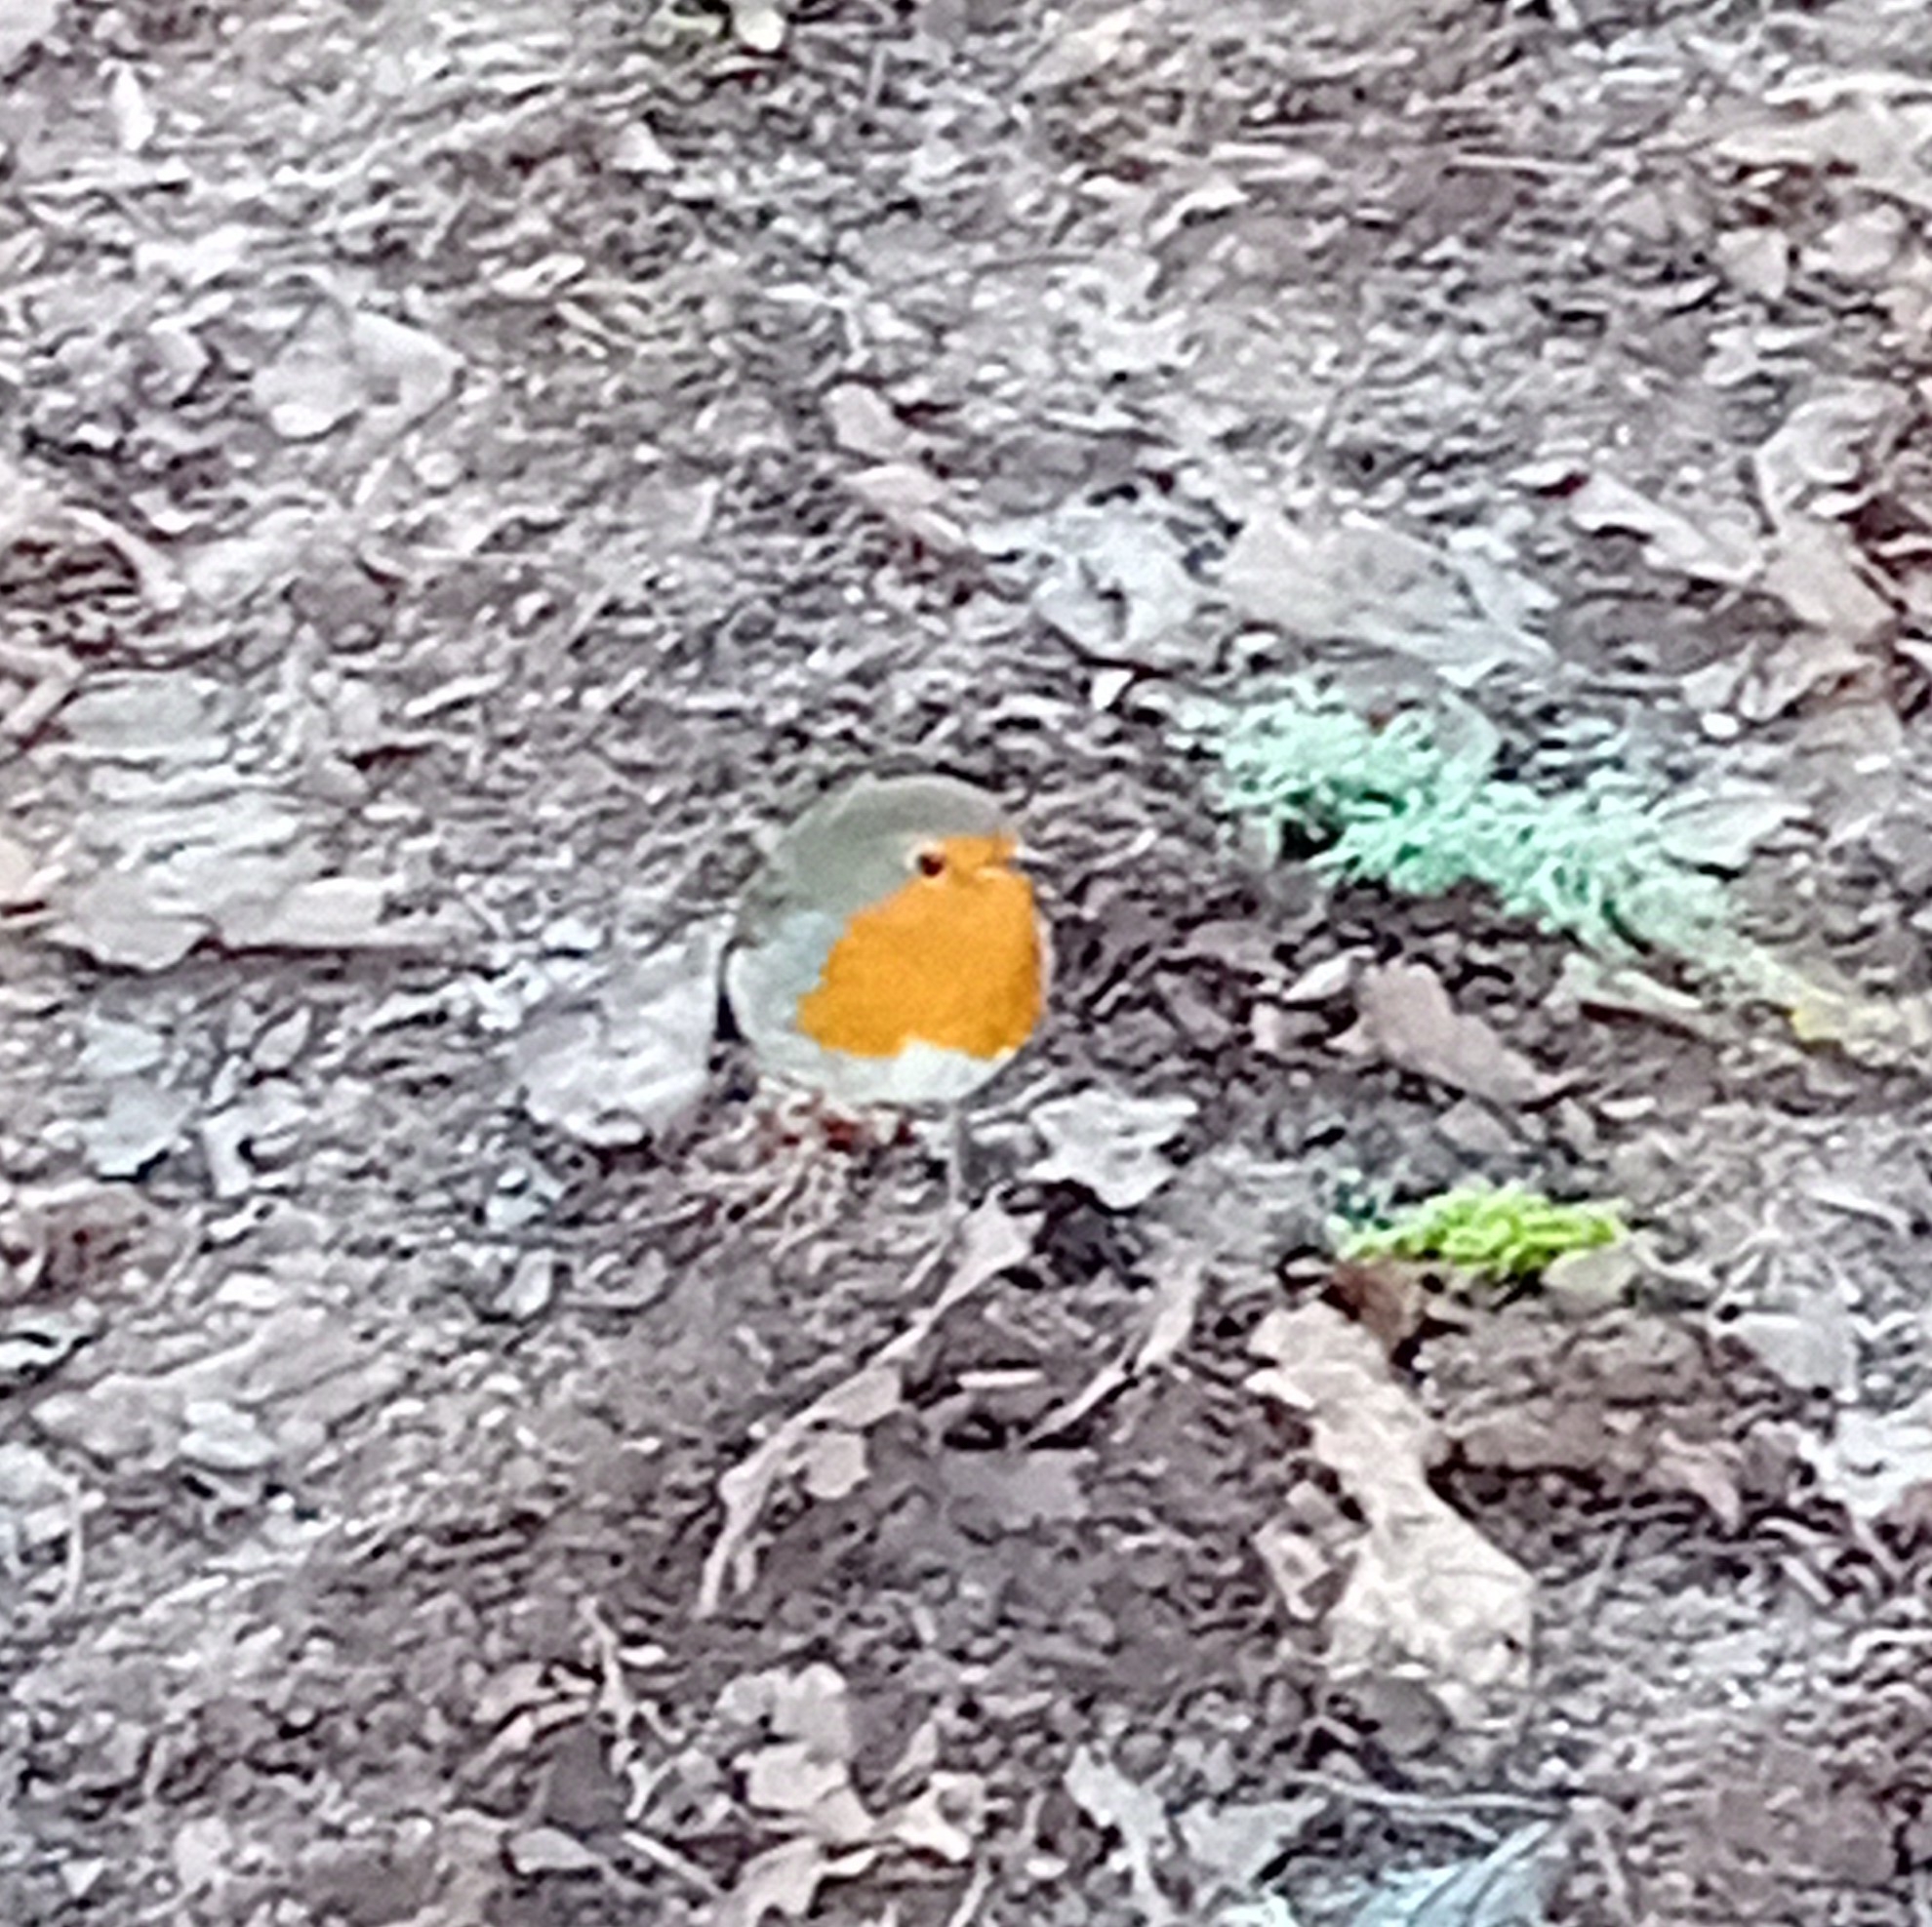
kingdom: Animalia
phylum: Chordata
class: Aves
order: Passeriformes
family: Muscicapidae
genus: Erithacus
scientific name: Erithacus rubecula
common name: European robin
